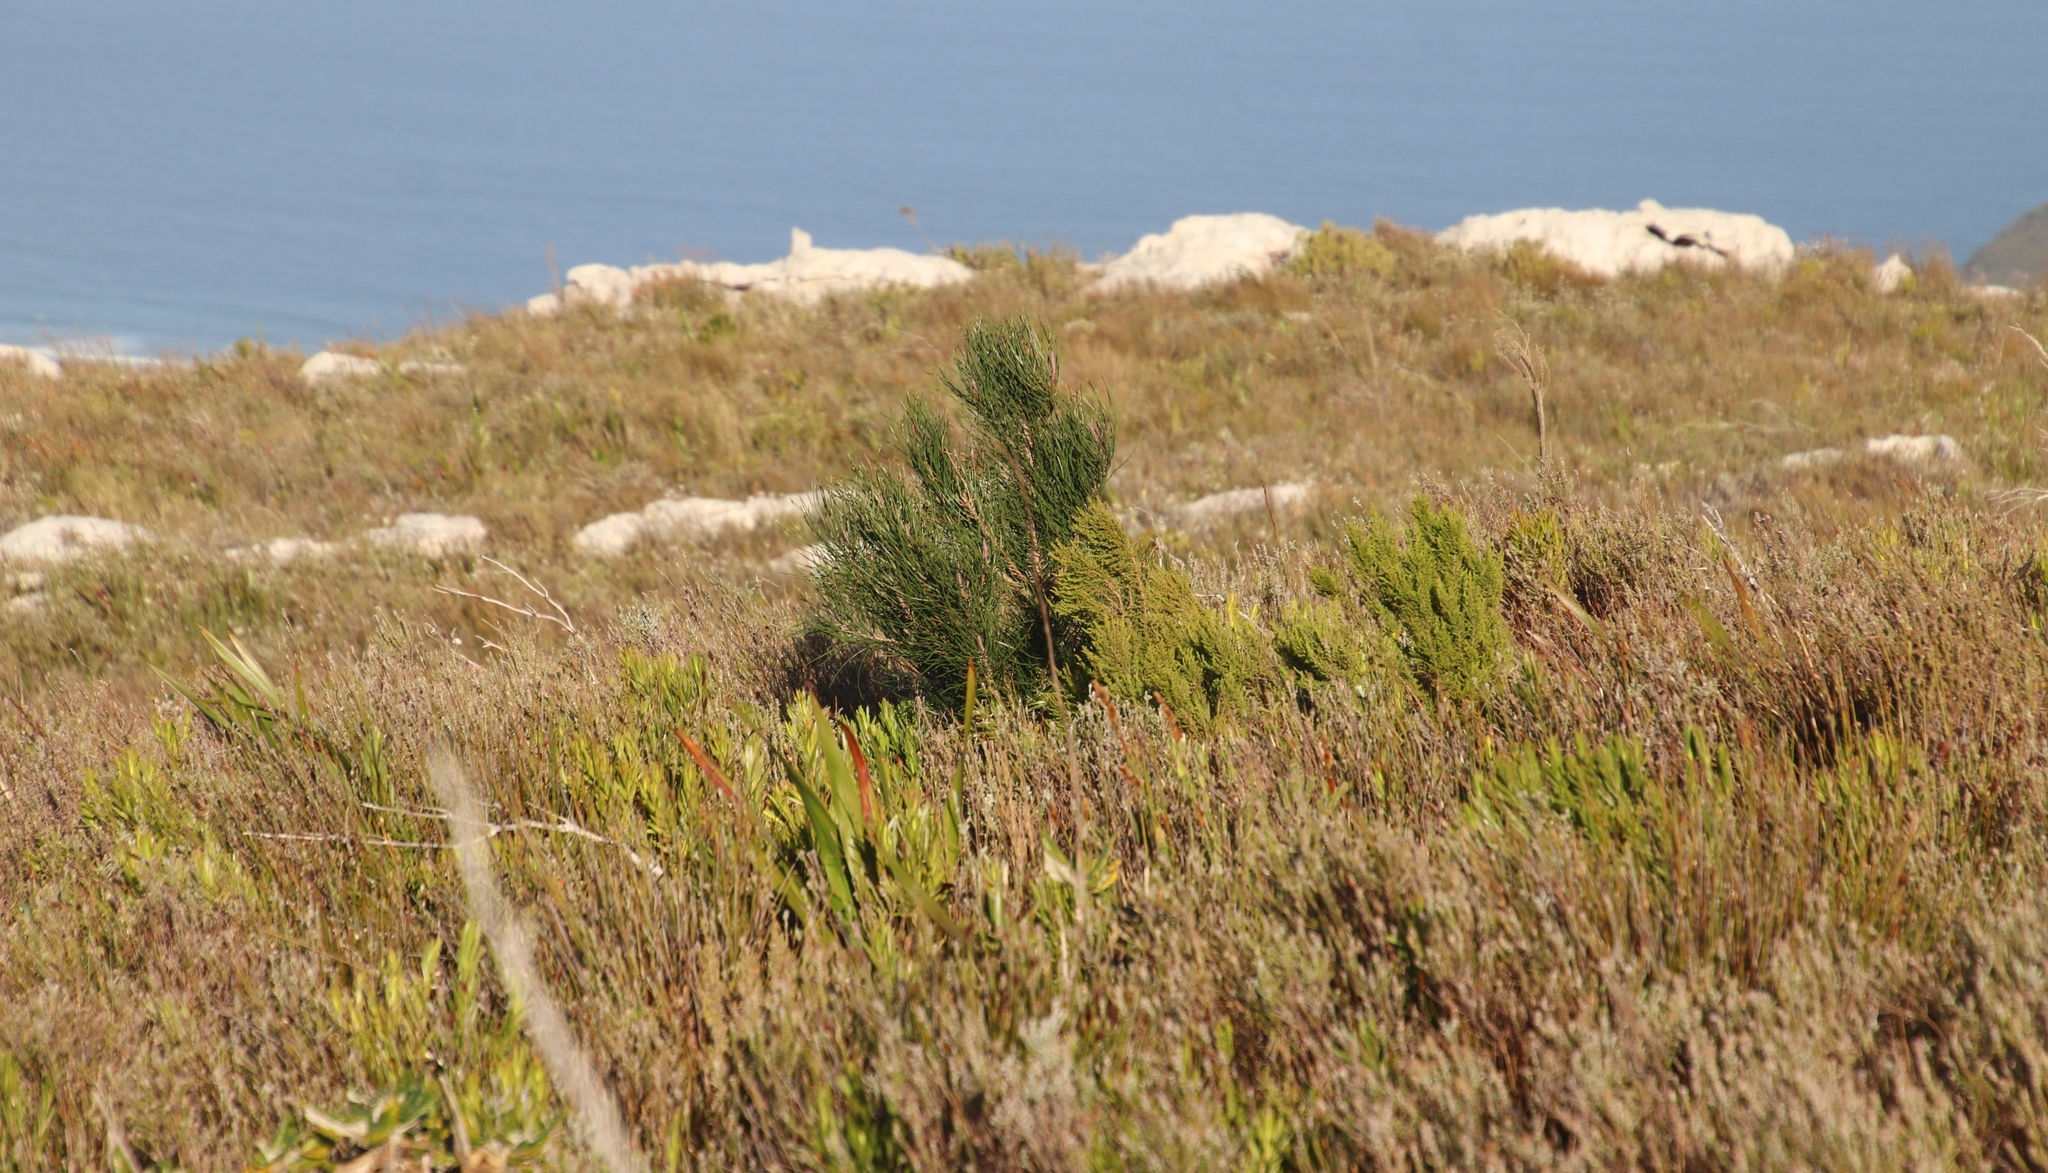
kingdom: Plantae
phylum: Tracheophyta
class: Pinopsida
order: Pinales
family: Pinaceae
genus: Pinus
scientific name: Pinus pinaster
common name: Maritime pine
